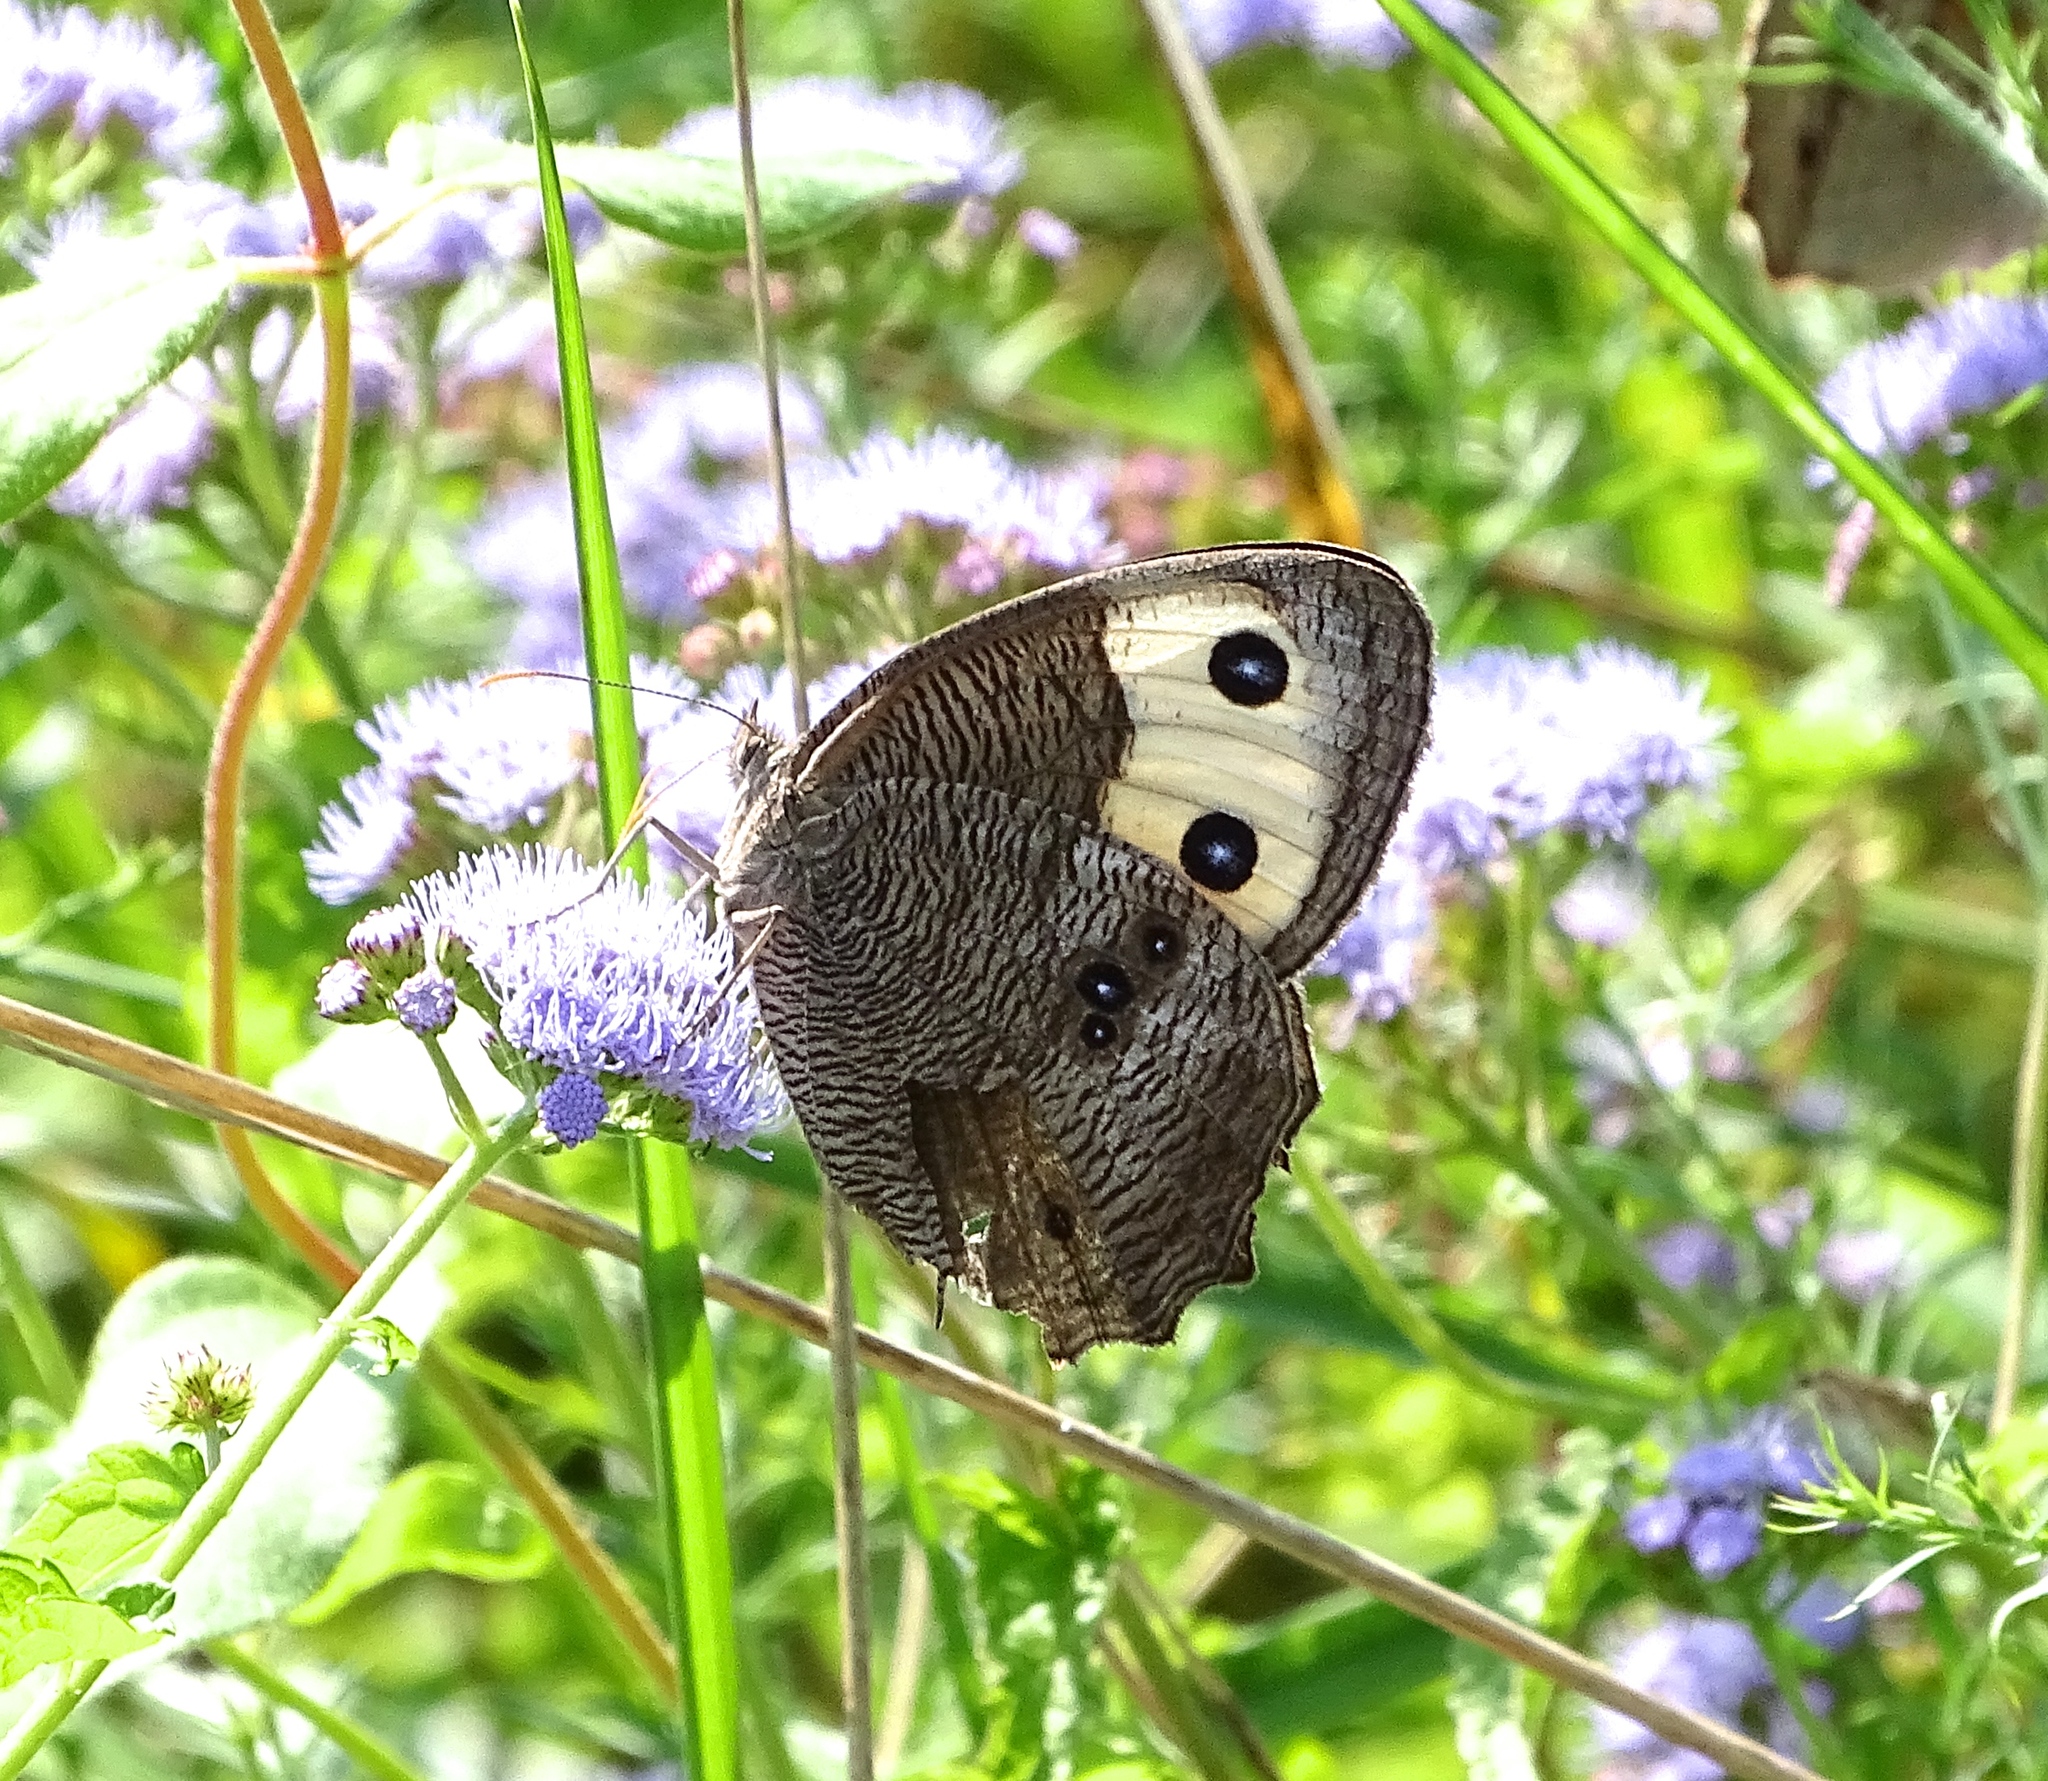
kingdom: Animalia
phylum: Arthropoda
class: Insecta
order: Lepidoptera
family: Nymphalidae
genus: Cercyonis
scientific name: Cercyonis pegala
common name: Common wood-nymph
